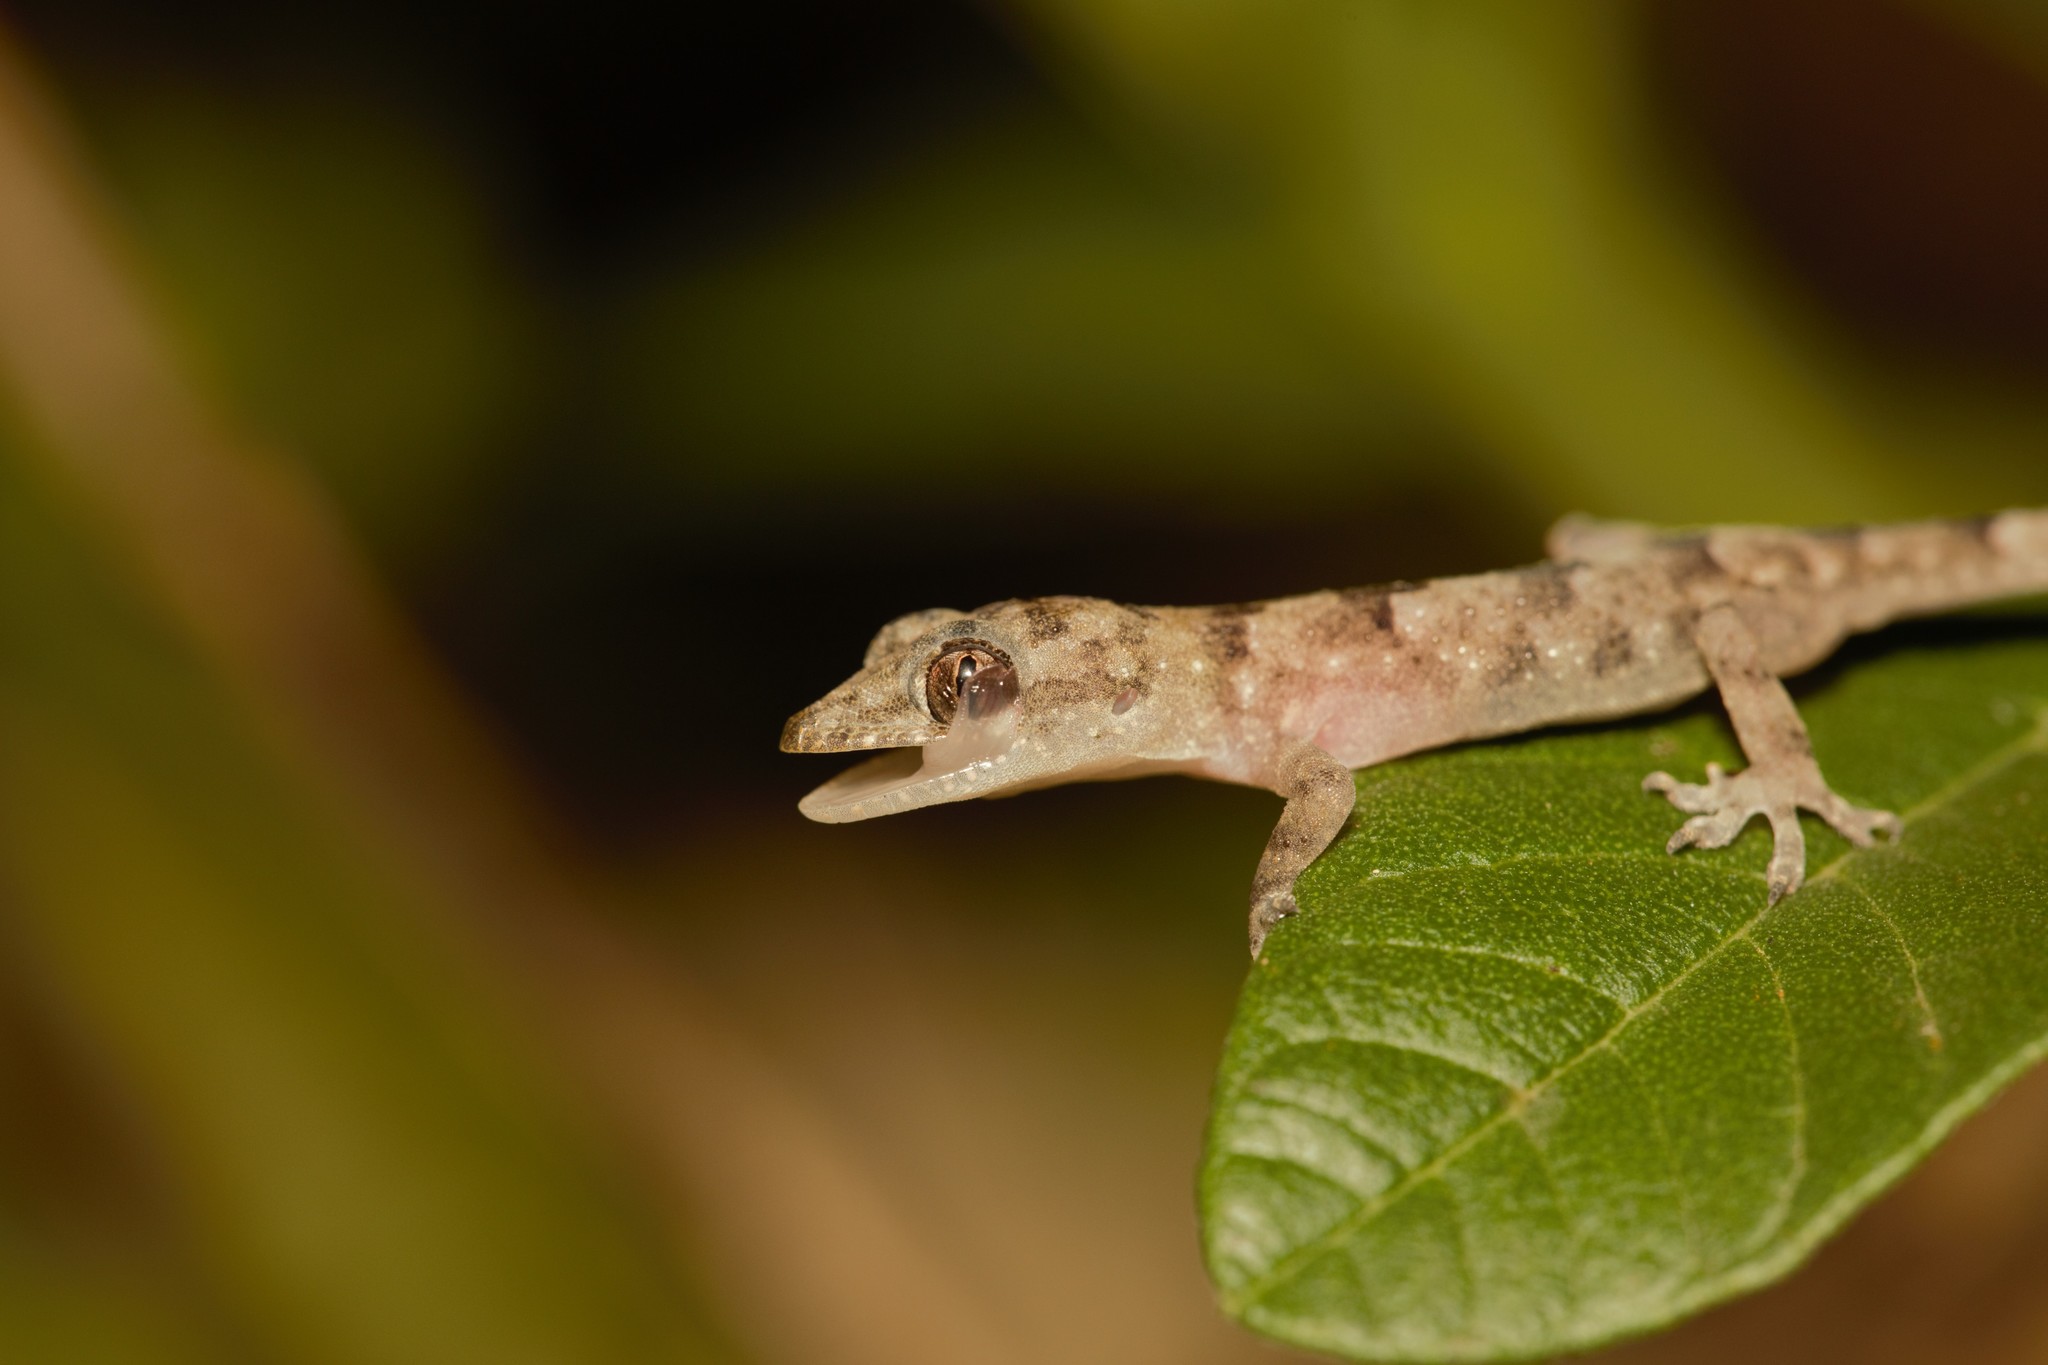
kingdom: Animalia
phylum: Chordata
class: Squamata
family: Gekkonidae
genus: Hemidactylus
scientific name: Hemidactylus mabouia
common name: House gecko
